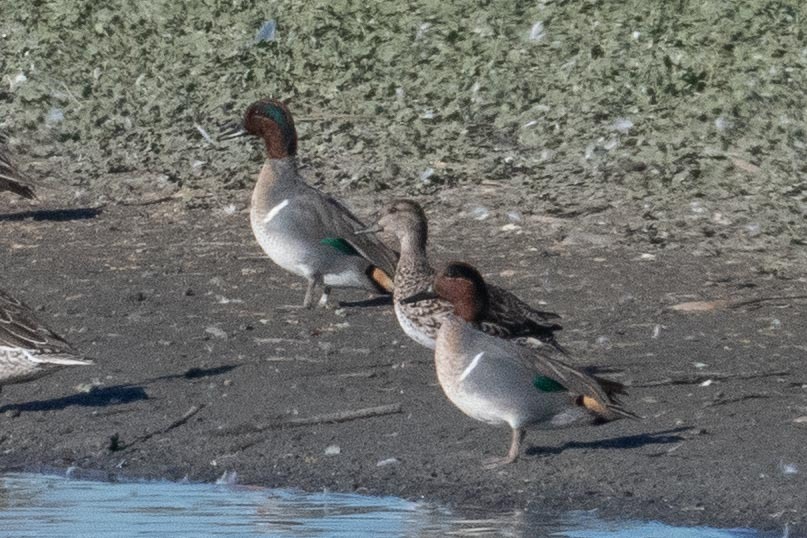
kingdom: Animalia
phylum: Chordata
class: Aves
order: Anseriformes
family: Anatidae
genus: Anas
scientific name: Anas crecca
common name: Eurasian teal
